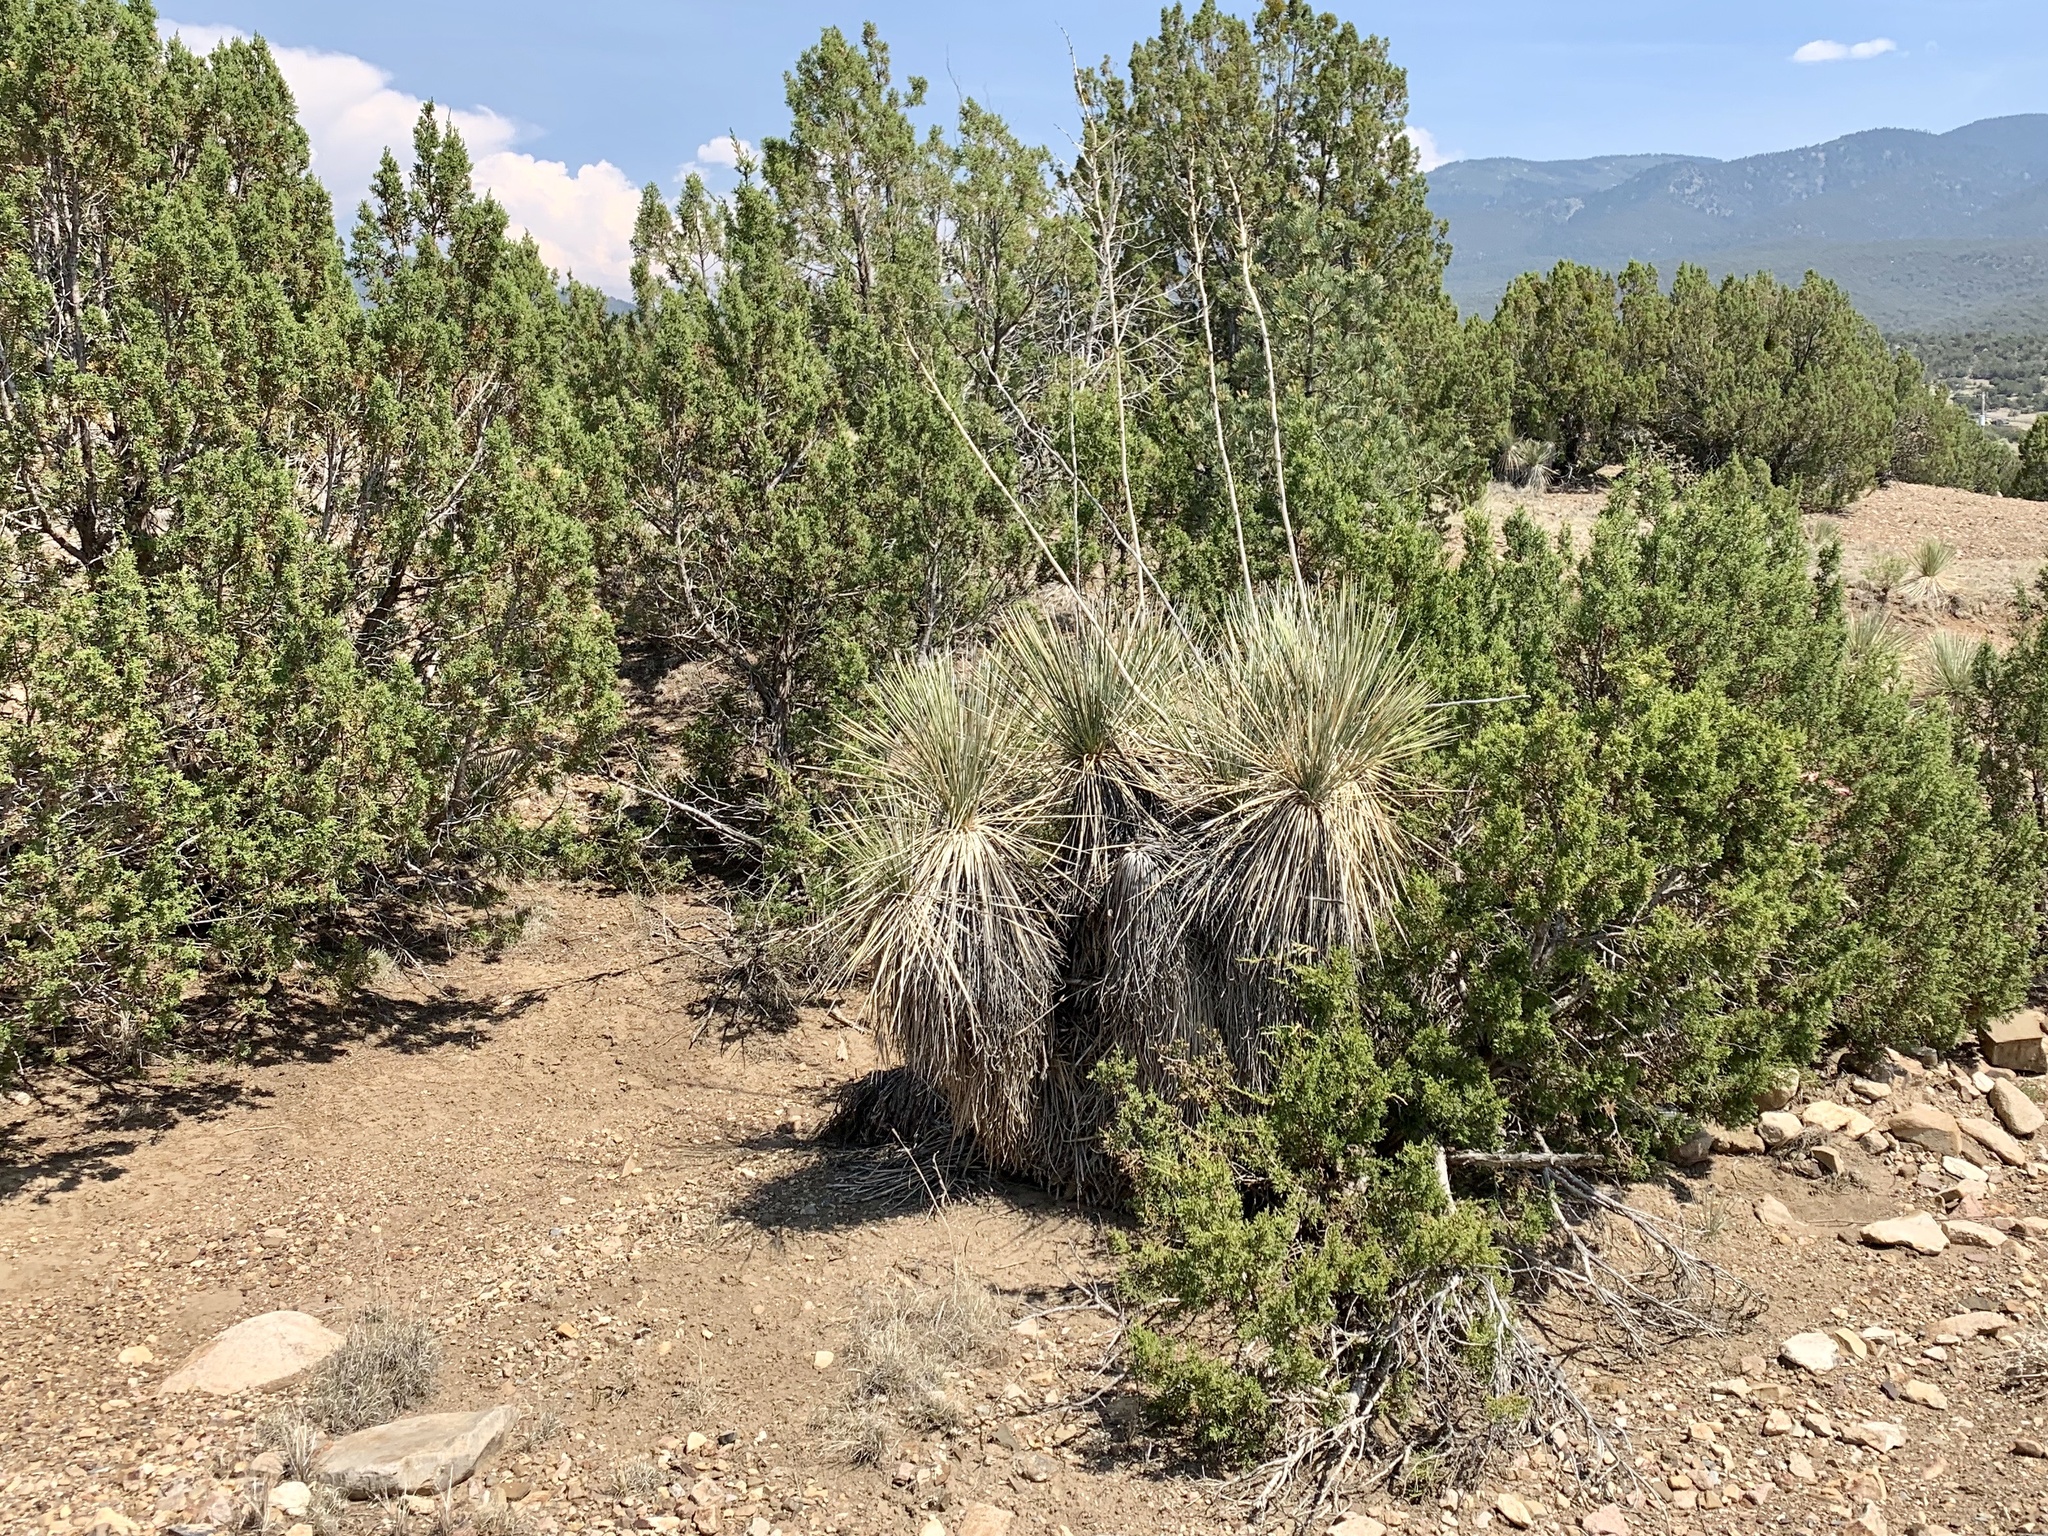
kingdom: Plantae
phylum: Tracheophyta
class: Liliopsida
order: Asparagales
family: Asparagaceae
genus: Yucca
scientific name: Yucca elata
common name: Palmella
